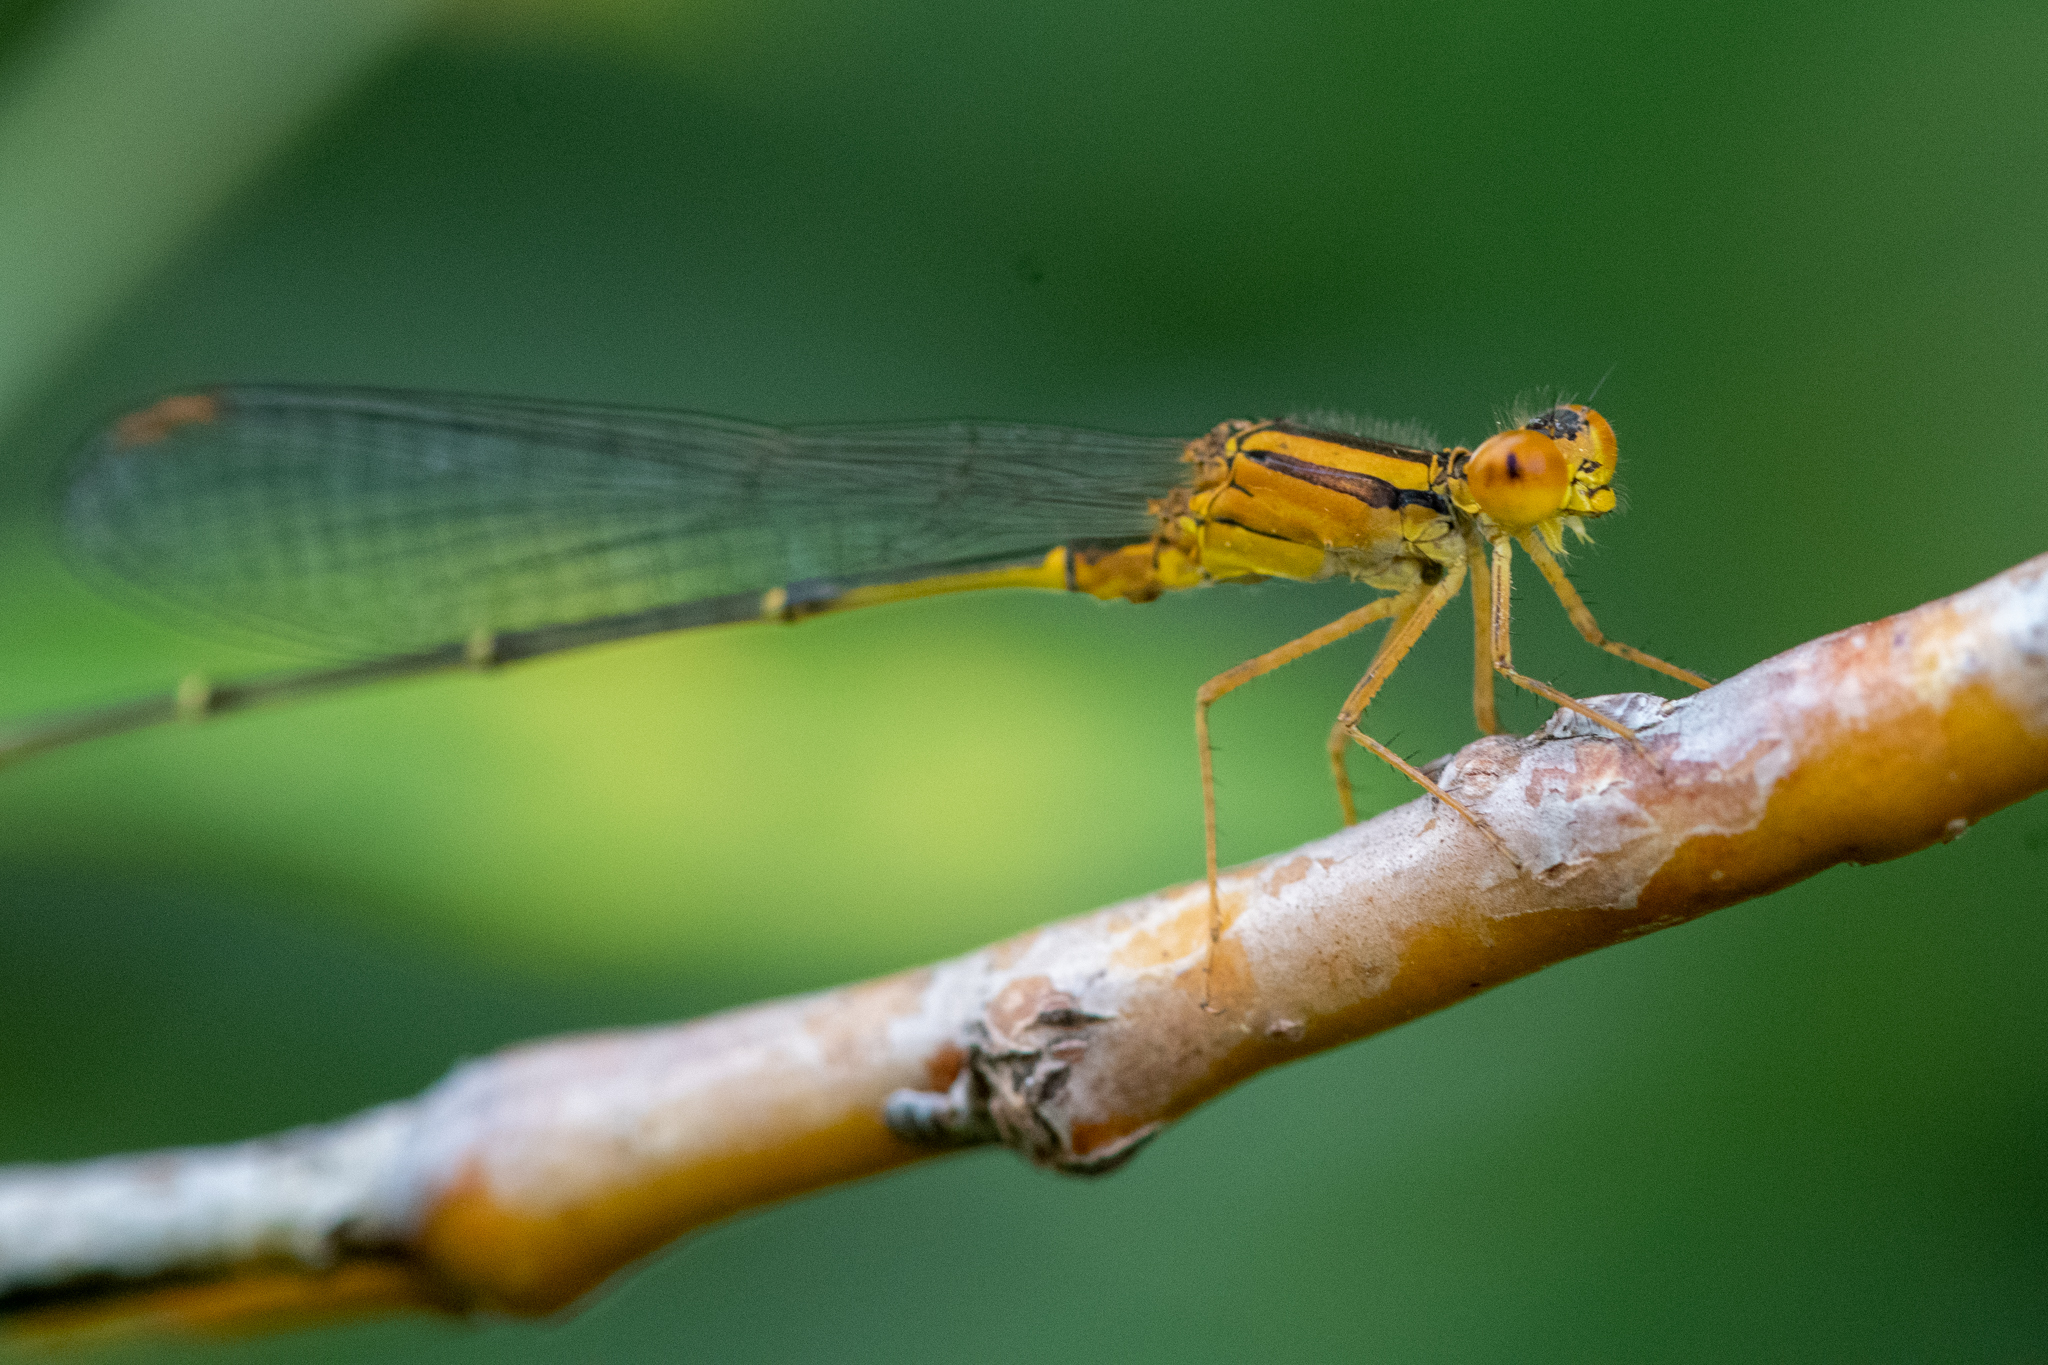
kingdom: Animalia
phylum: Arthropoda
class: Insecta
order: Odonata
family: Coenagrionidae
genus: Enallagma
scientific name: Enallagma signatum
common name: Orange bluet
